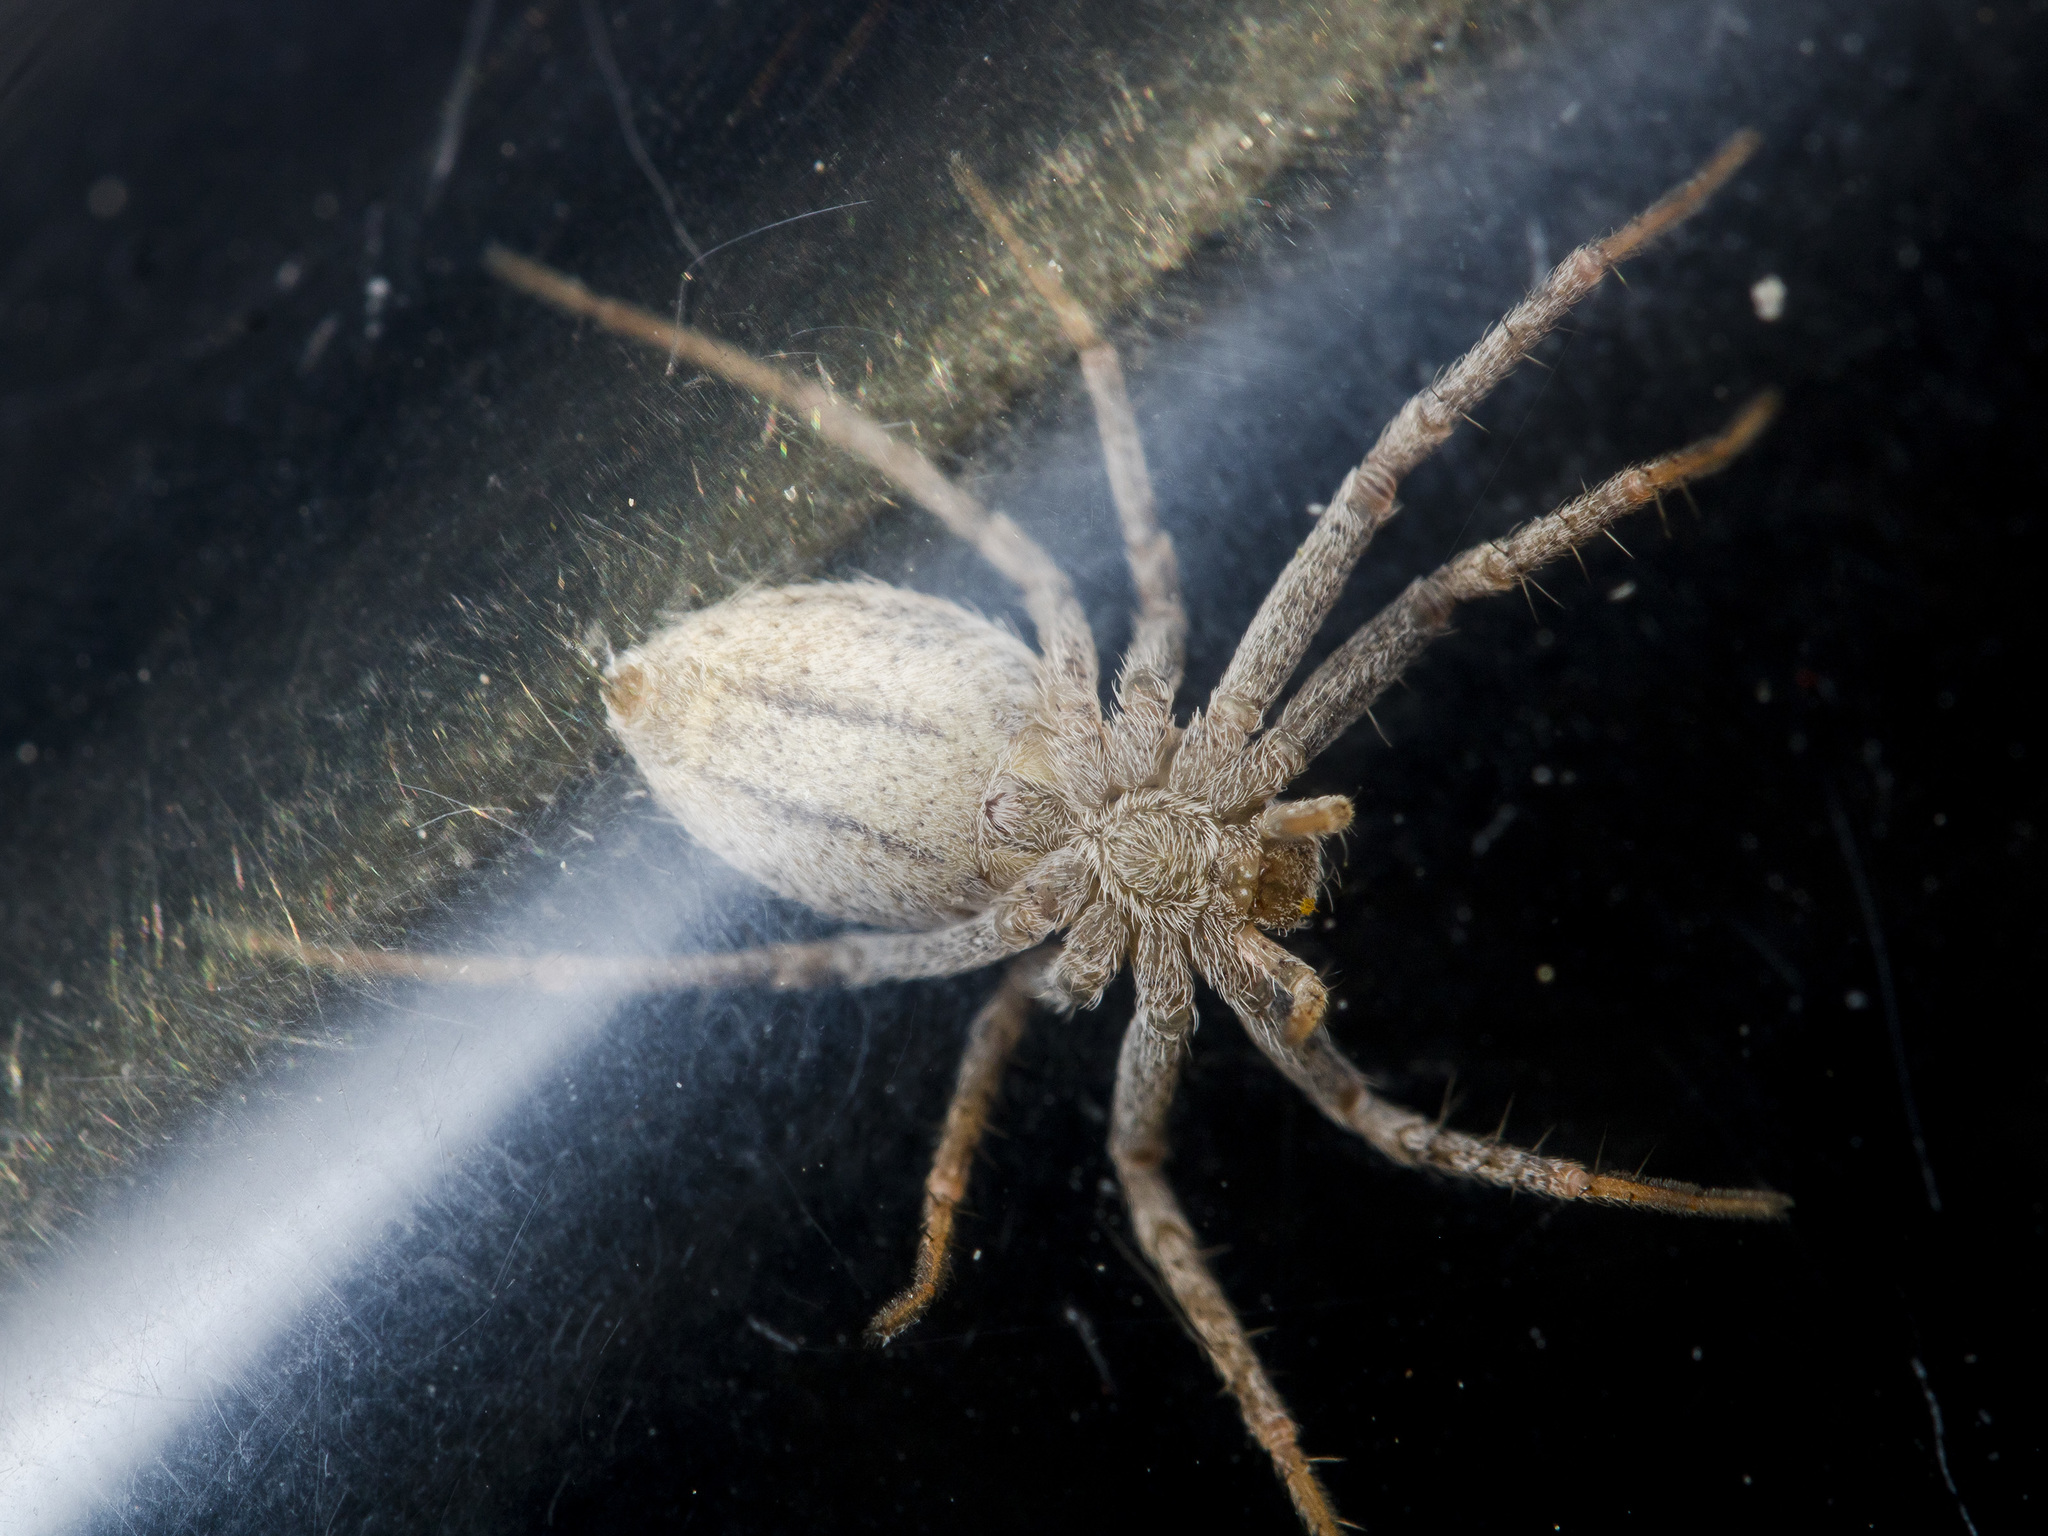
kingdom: Animalia
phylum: Arthropoda
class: Arachnida
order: Araneae
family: Philodromidae
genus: Thanatus
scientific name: Thanatus fabricii
